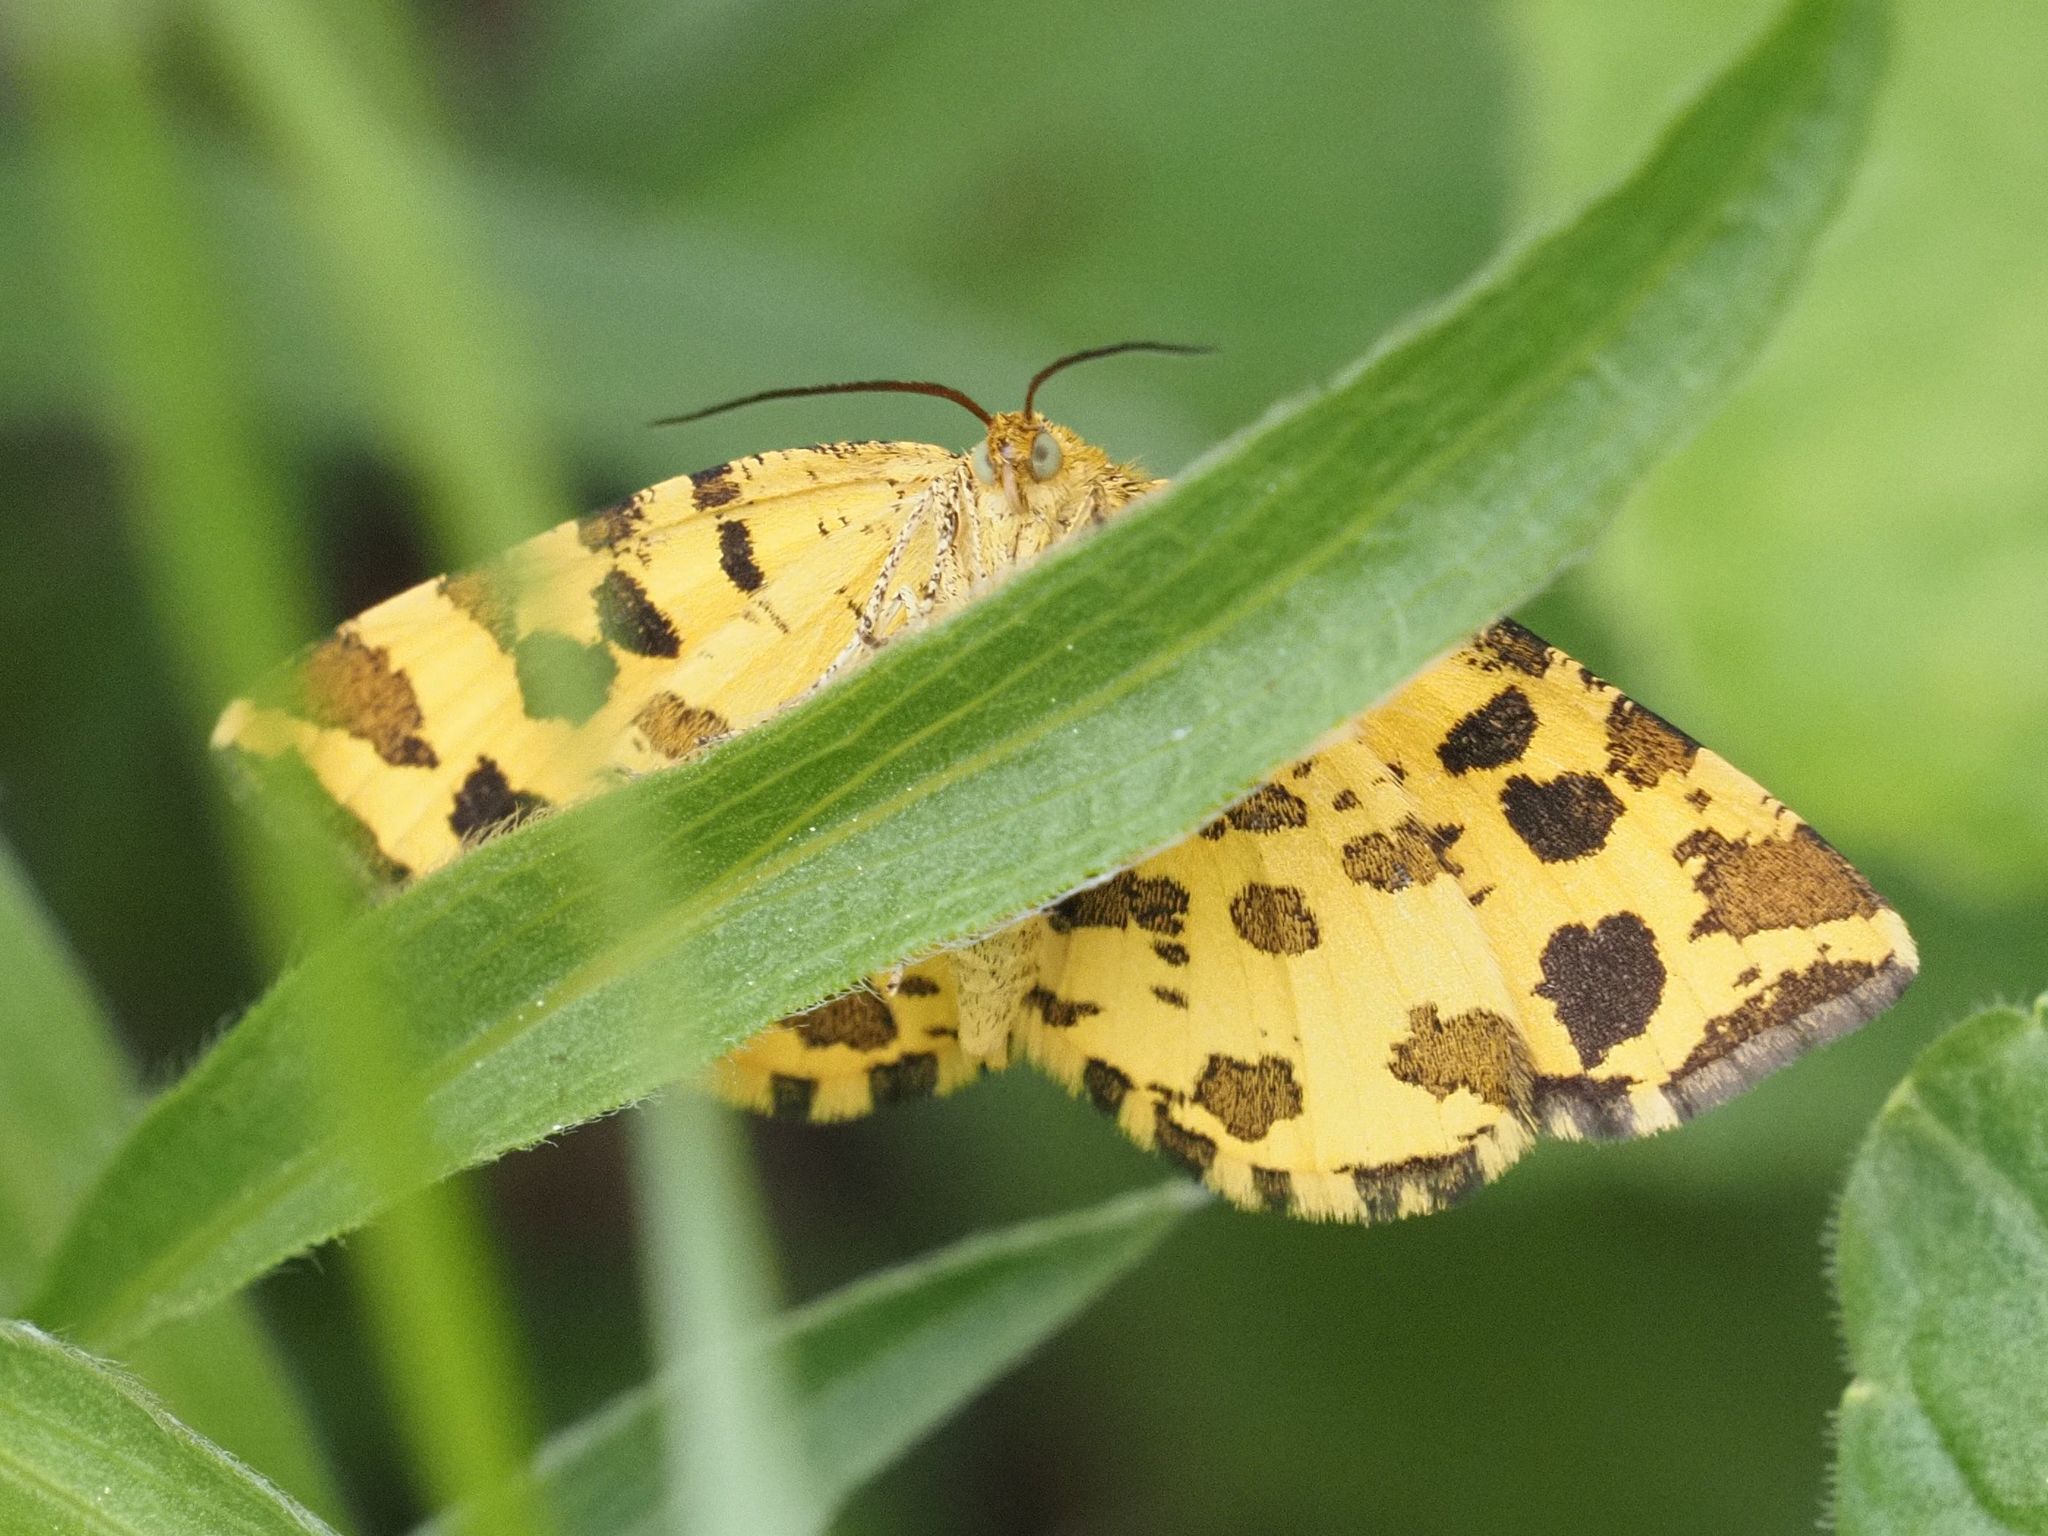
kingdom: Animalia
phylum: Arthropoda
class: Insecta
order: Lepidoptera
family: Geometridae
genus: Pseudopanthera
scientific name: Pseudopanthera macularia
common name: Speckled yellow
